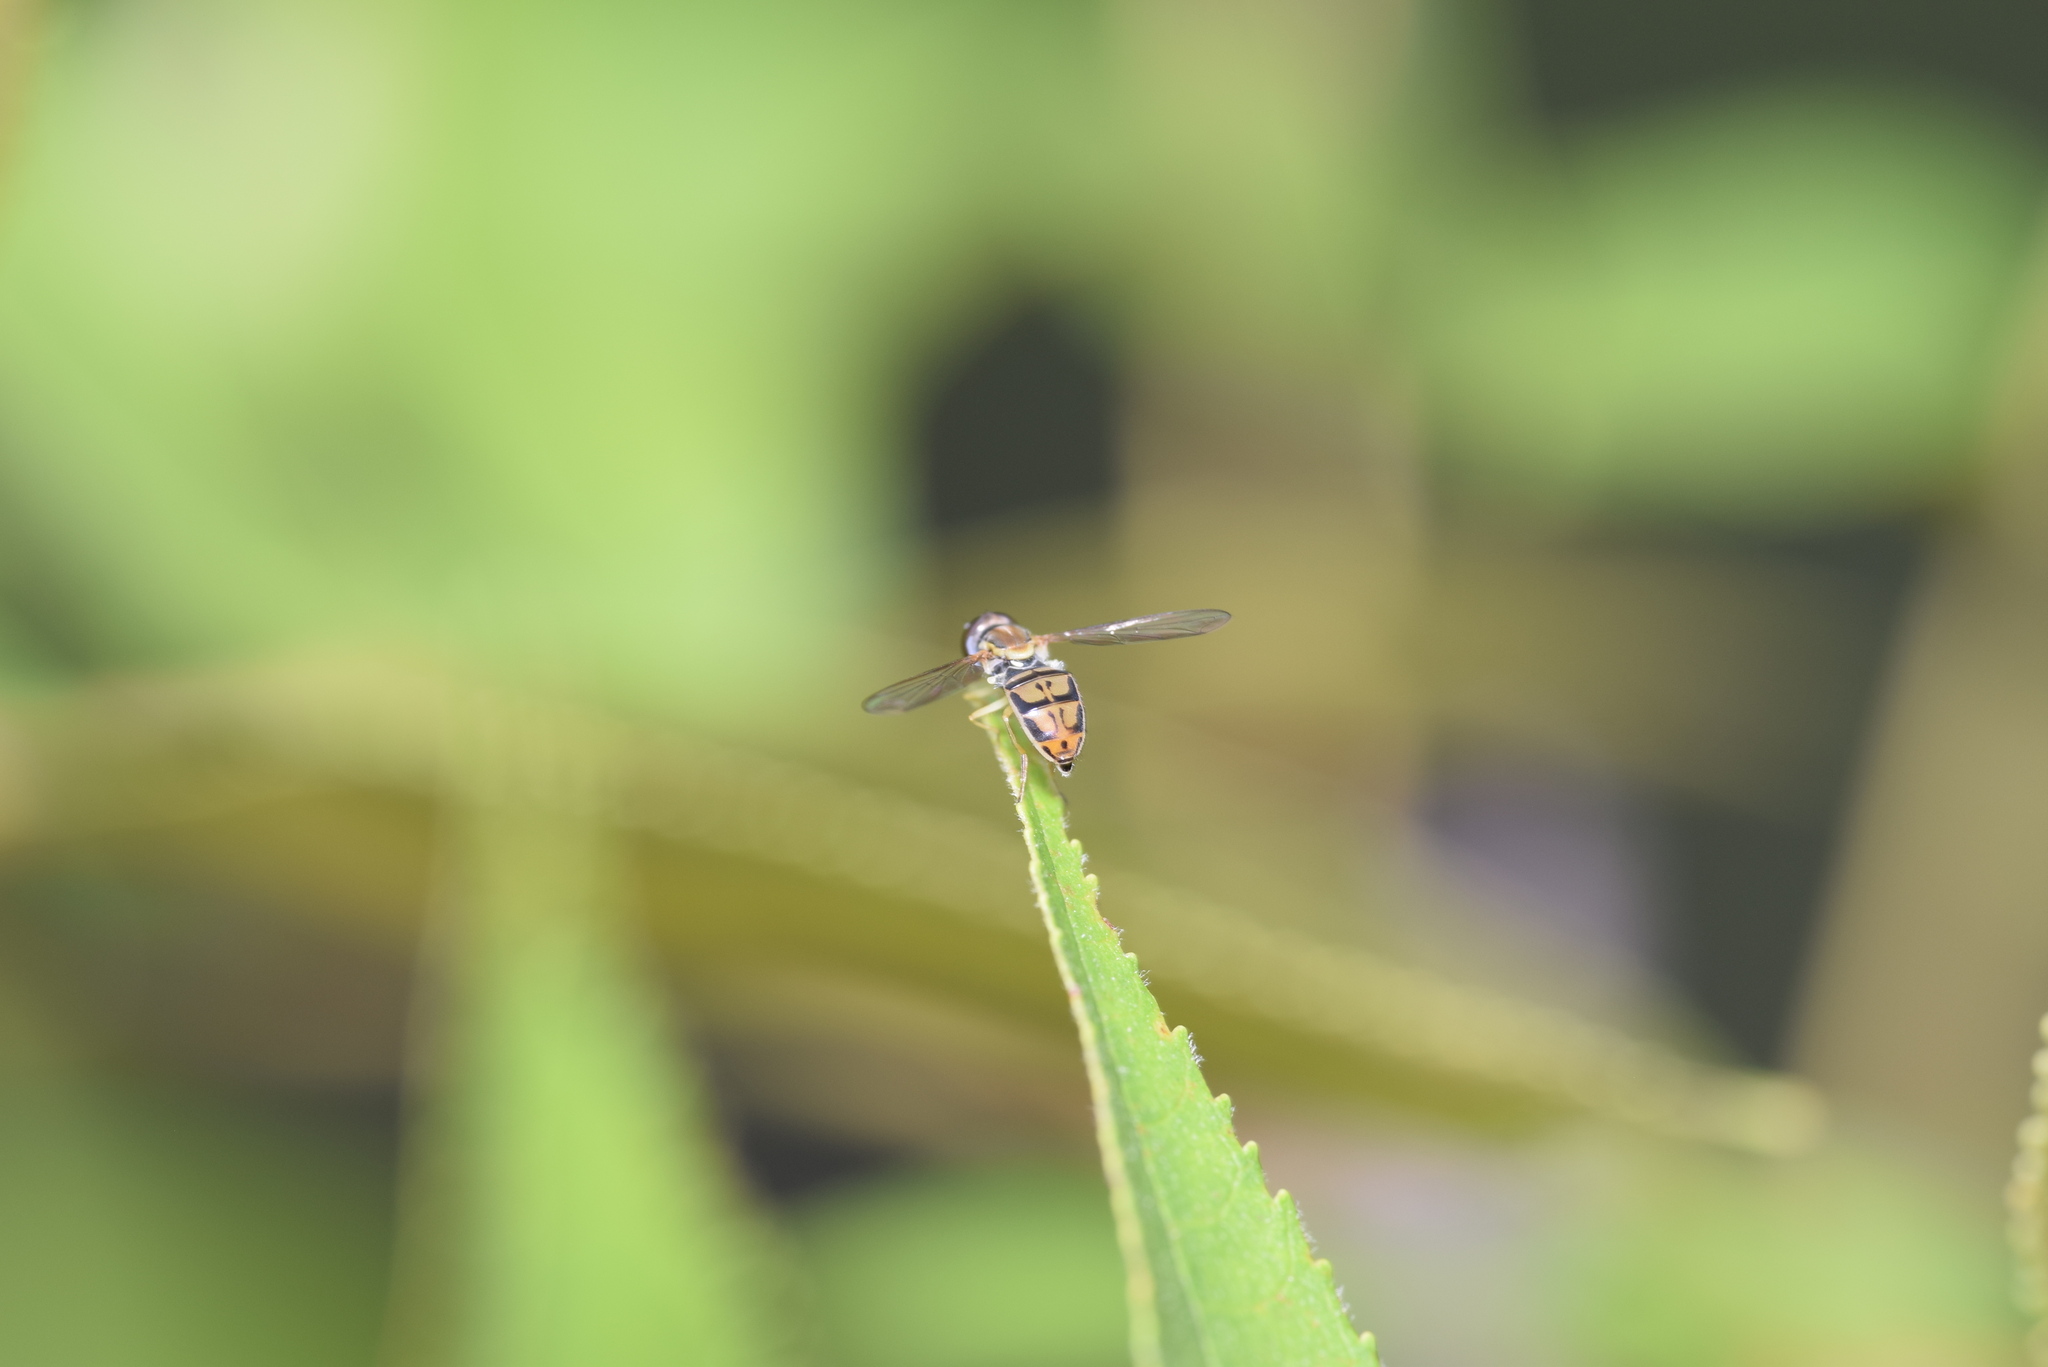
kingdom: Animalia
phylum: Arthropoda
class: Insecta
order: Diptera
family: Syrphidae
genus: Toxomerus
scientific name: Toxomerus marginatus
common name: Syrphid fly
